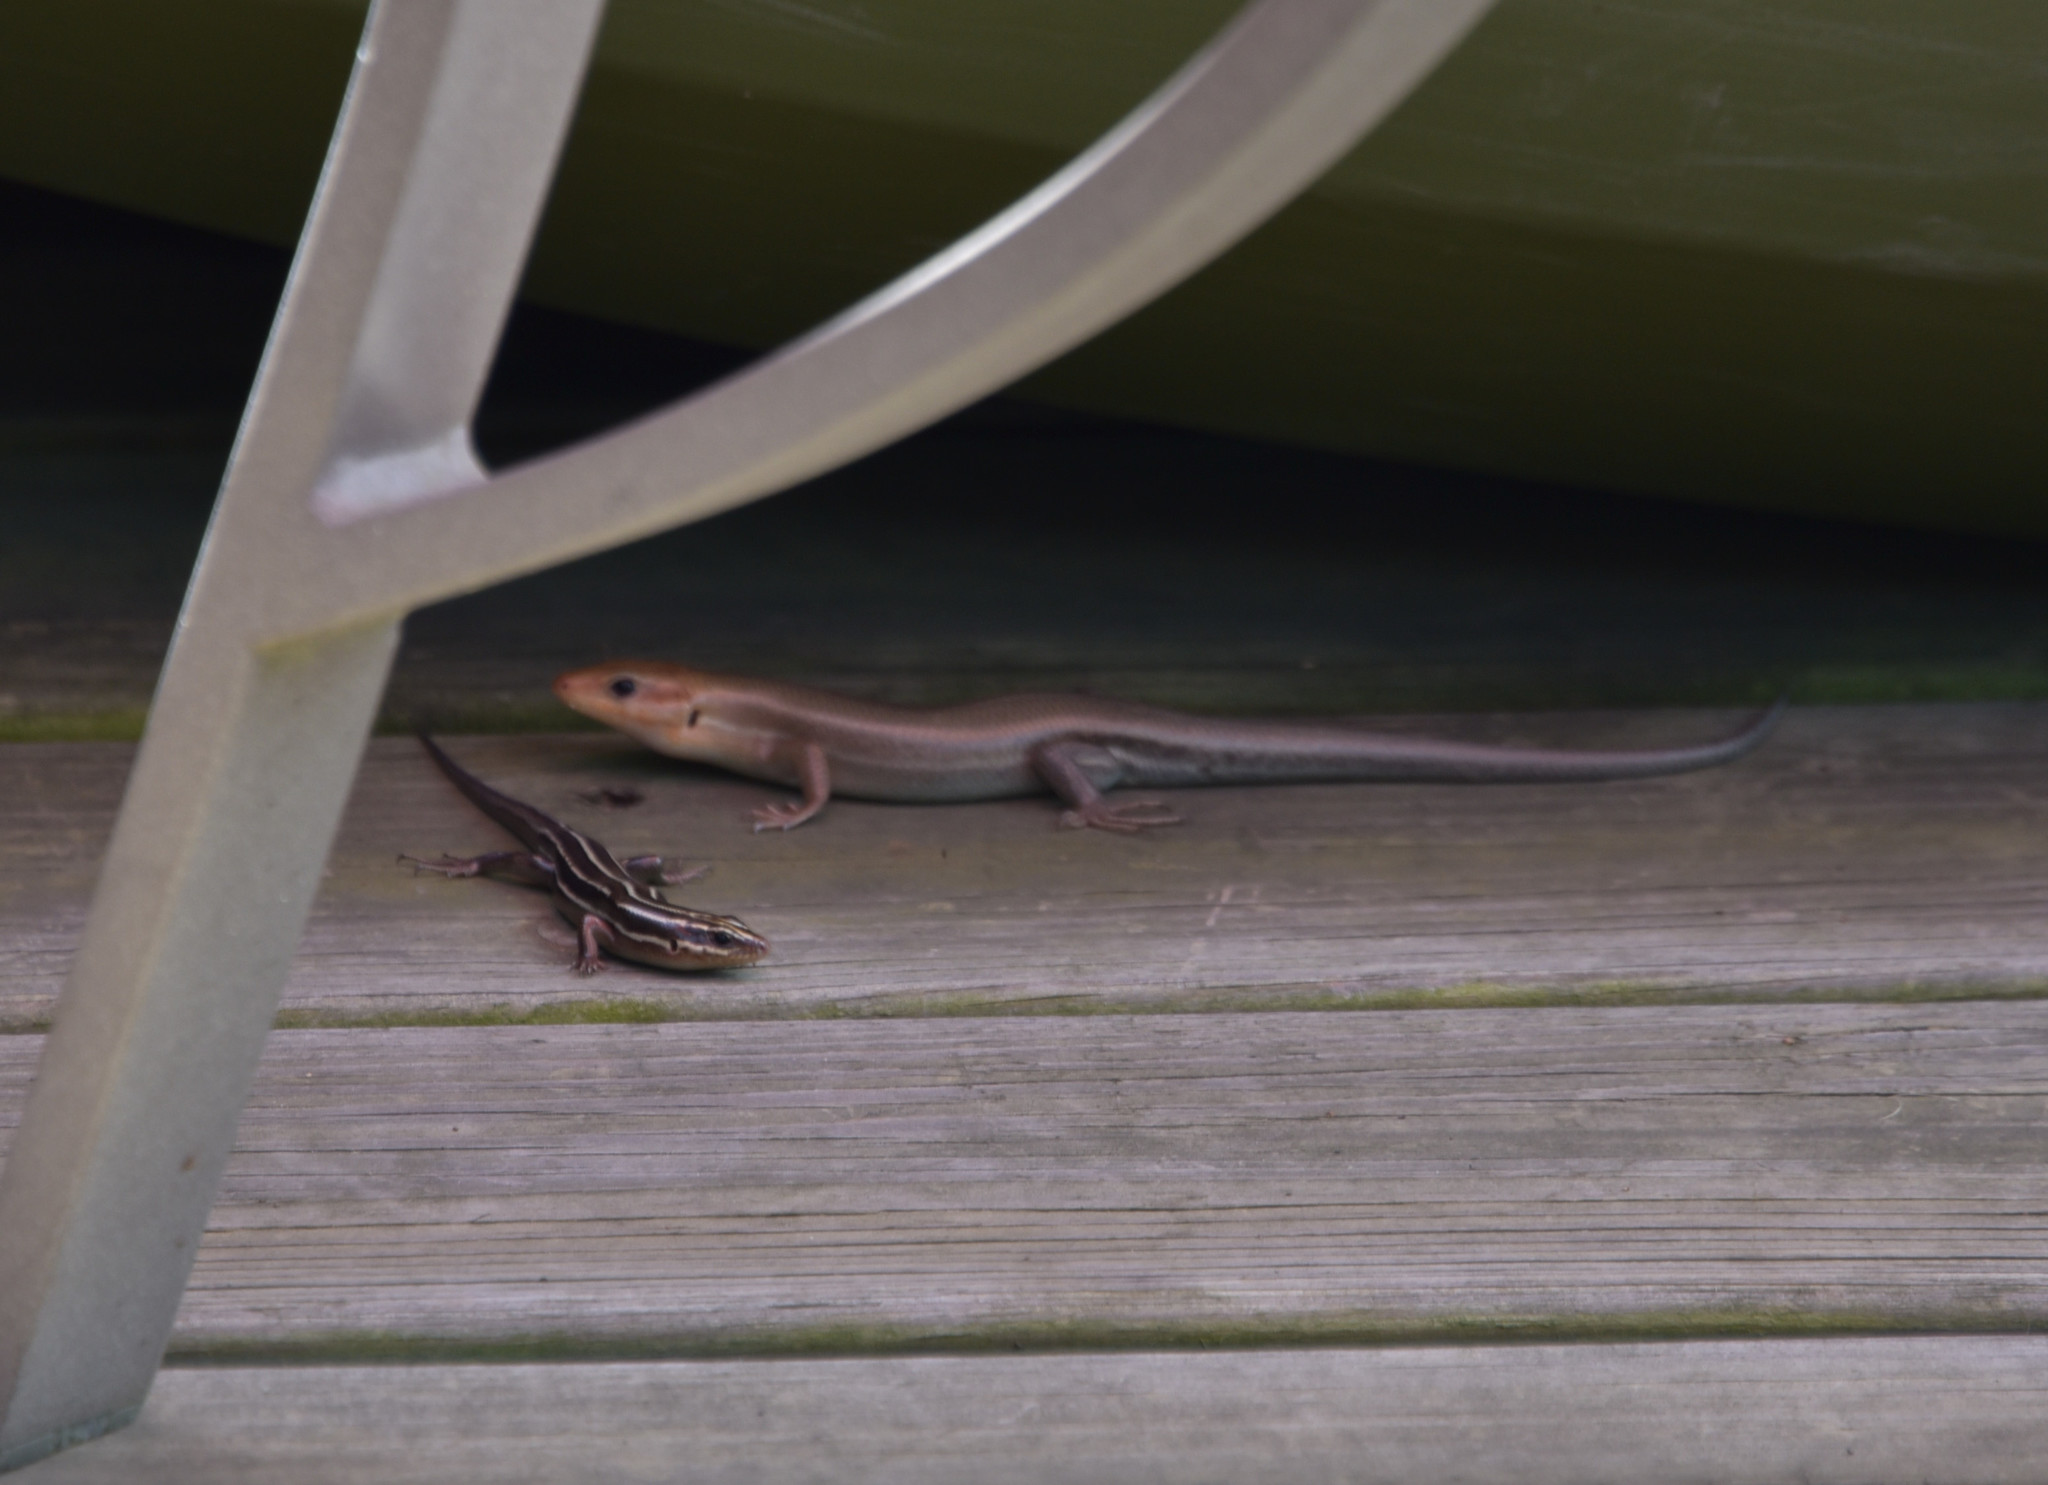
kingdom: Animalia
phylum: Chordata
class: Squamata
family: Scincidae
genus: Plestiodon
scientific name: Plestiodon laticeps
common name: Broadhead skink
